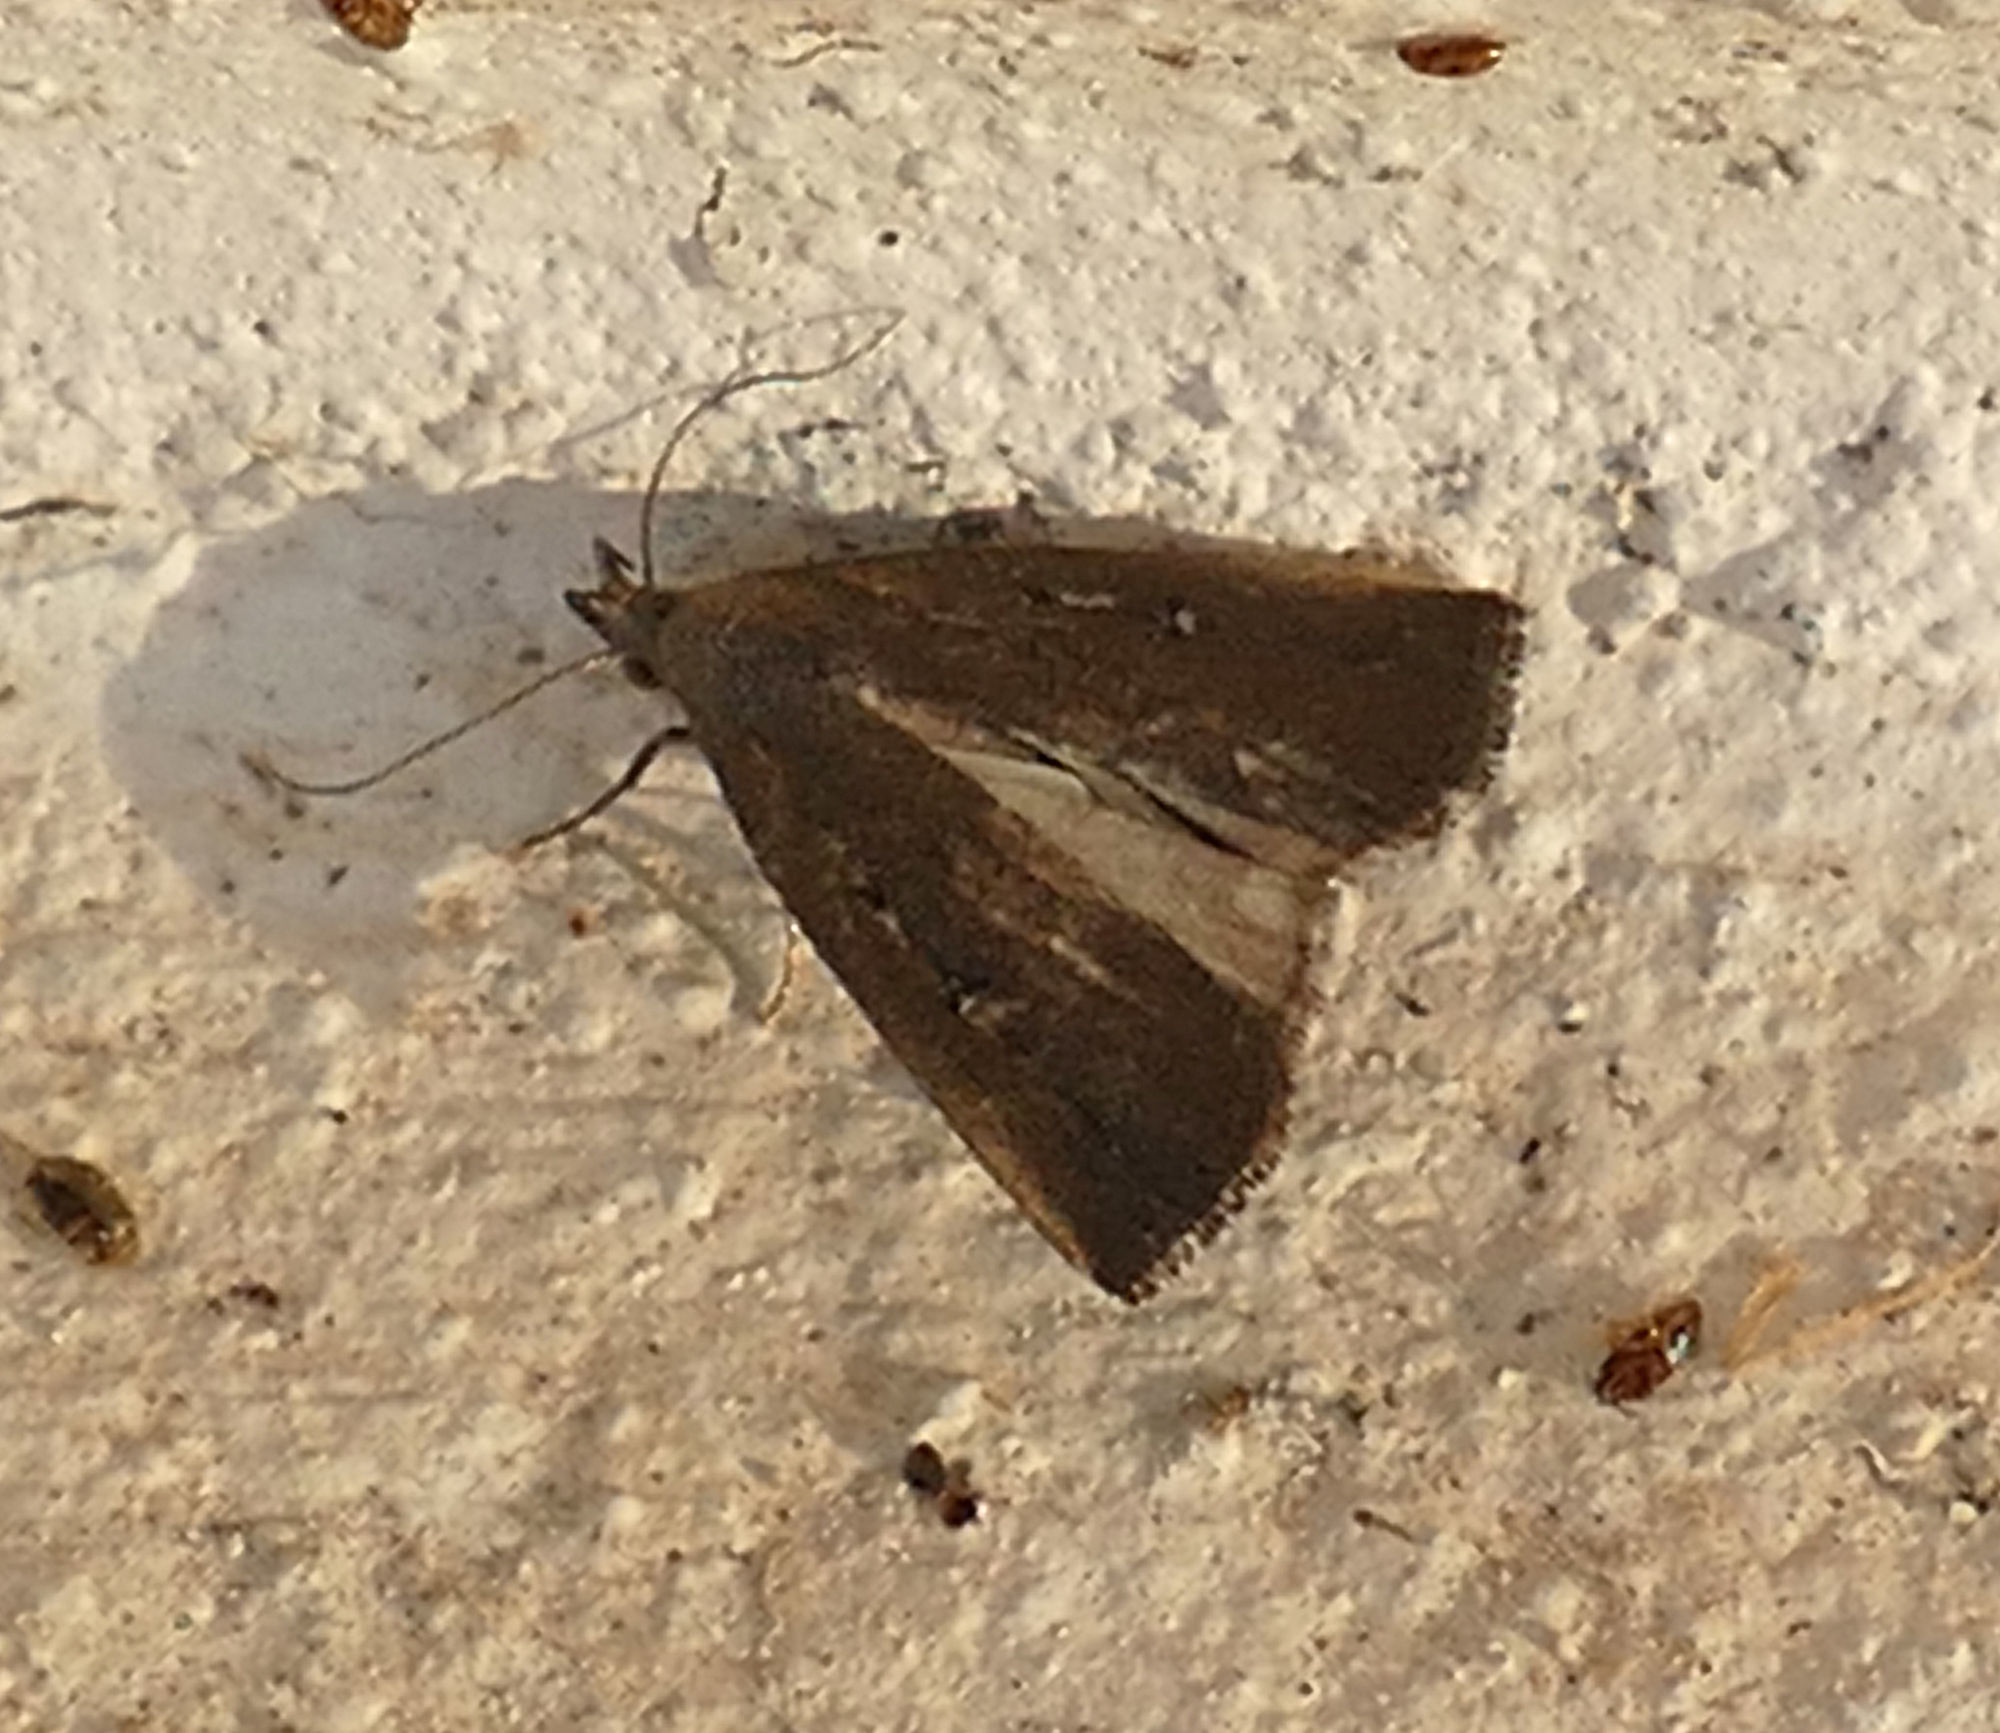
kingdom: Animalia
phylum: Arthropoda
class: Insecta
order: Lepidoptera
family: Erebidae
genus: Macrochilo
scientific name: Macrochilo orciferalis
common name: Bronzy owlet
